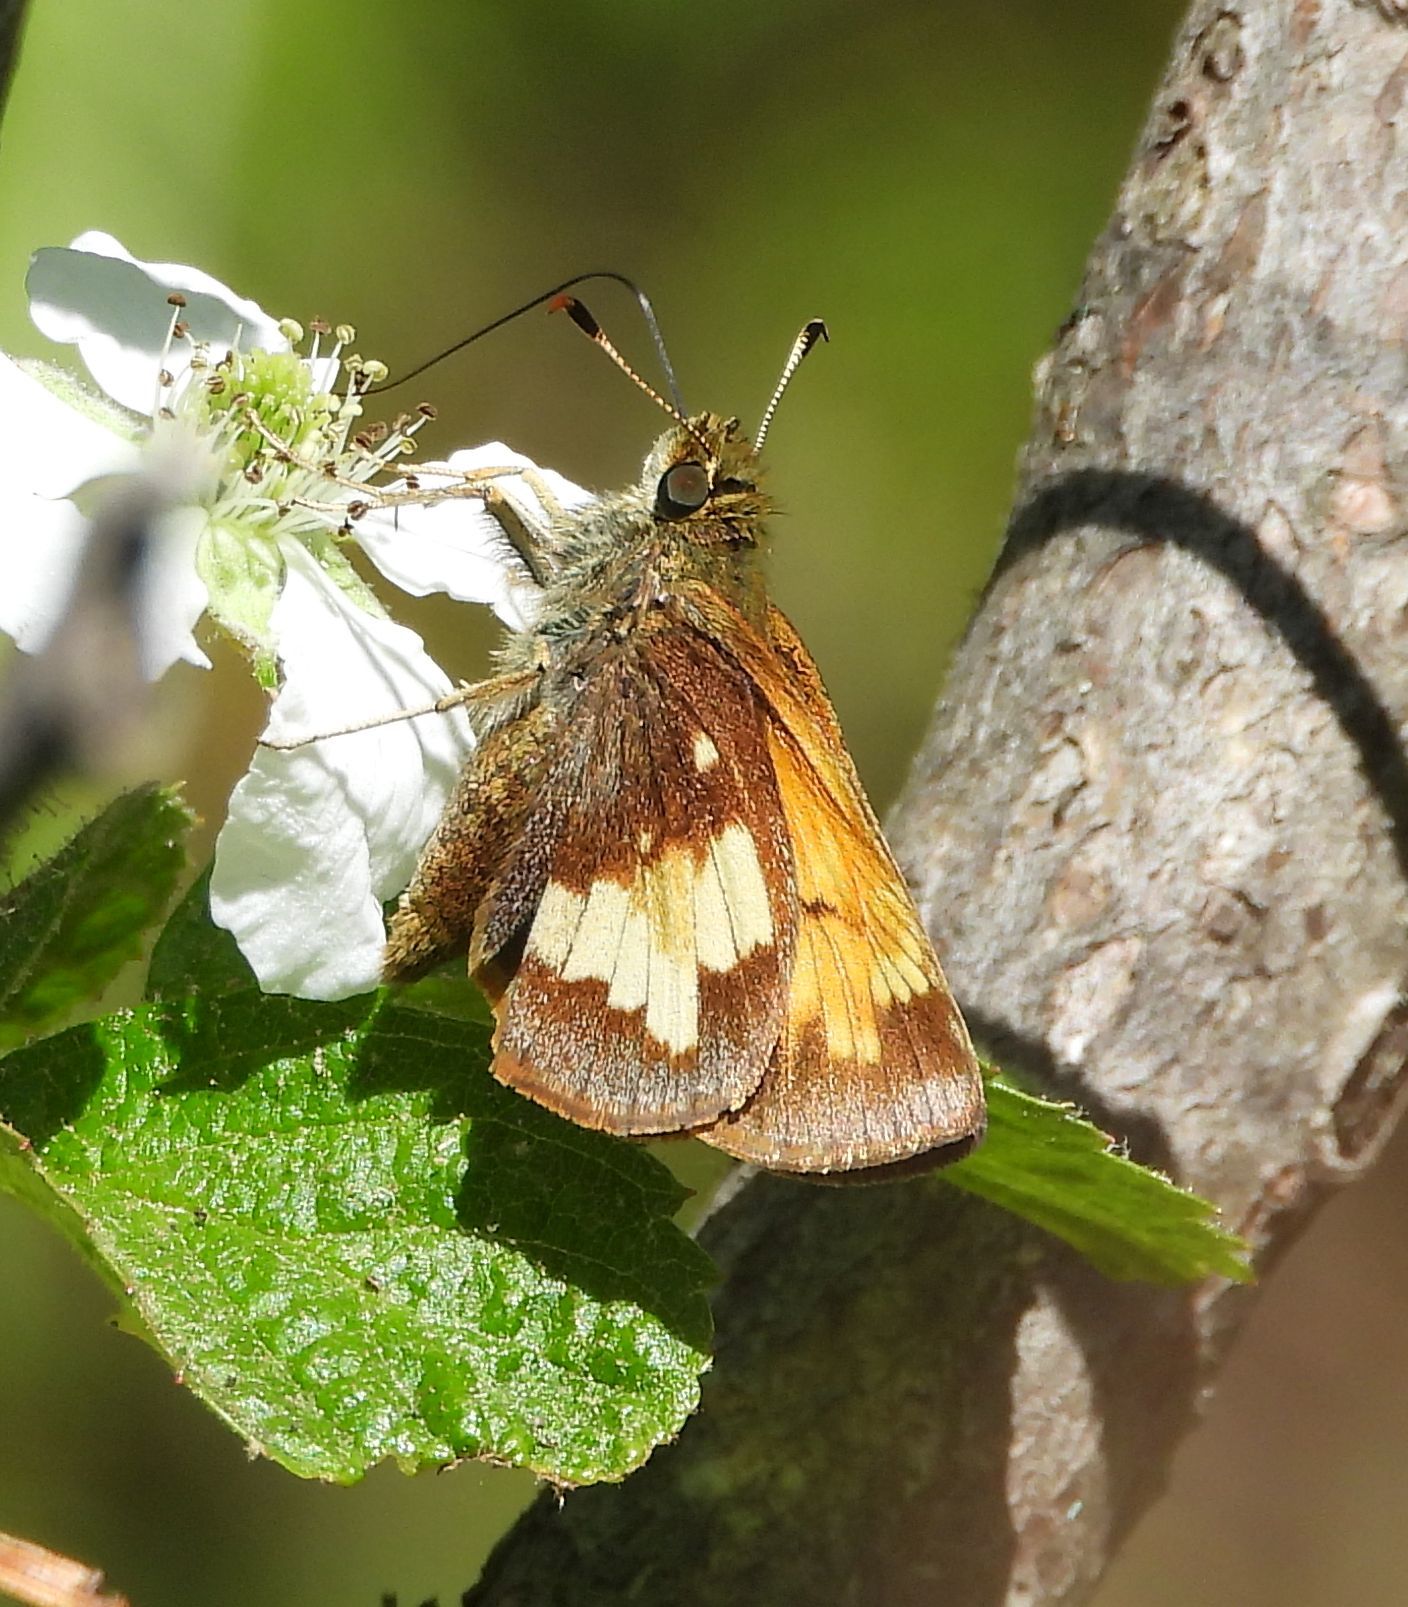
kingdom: Animalia
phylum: Arthropoda
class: Insecta
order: Lepidoptera
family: Hesperiidae
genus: Lon
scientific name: Lon hobomok
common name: Hobomok skipper
